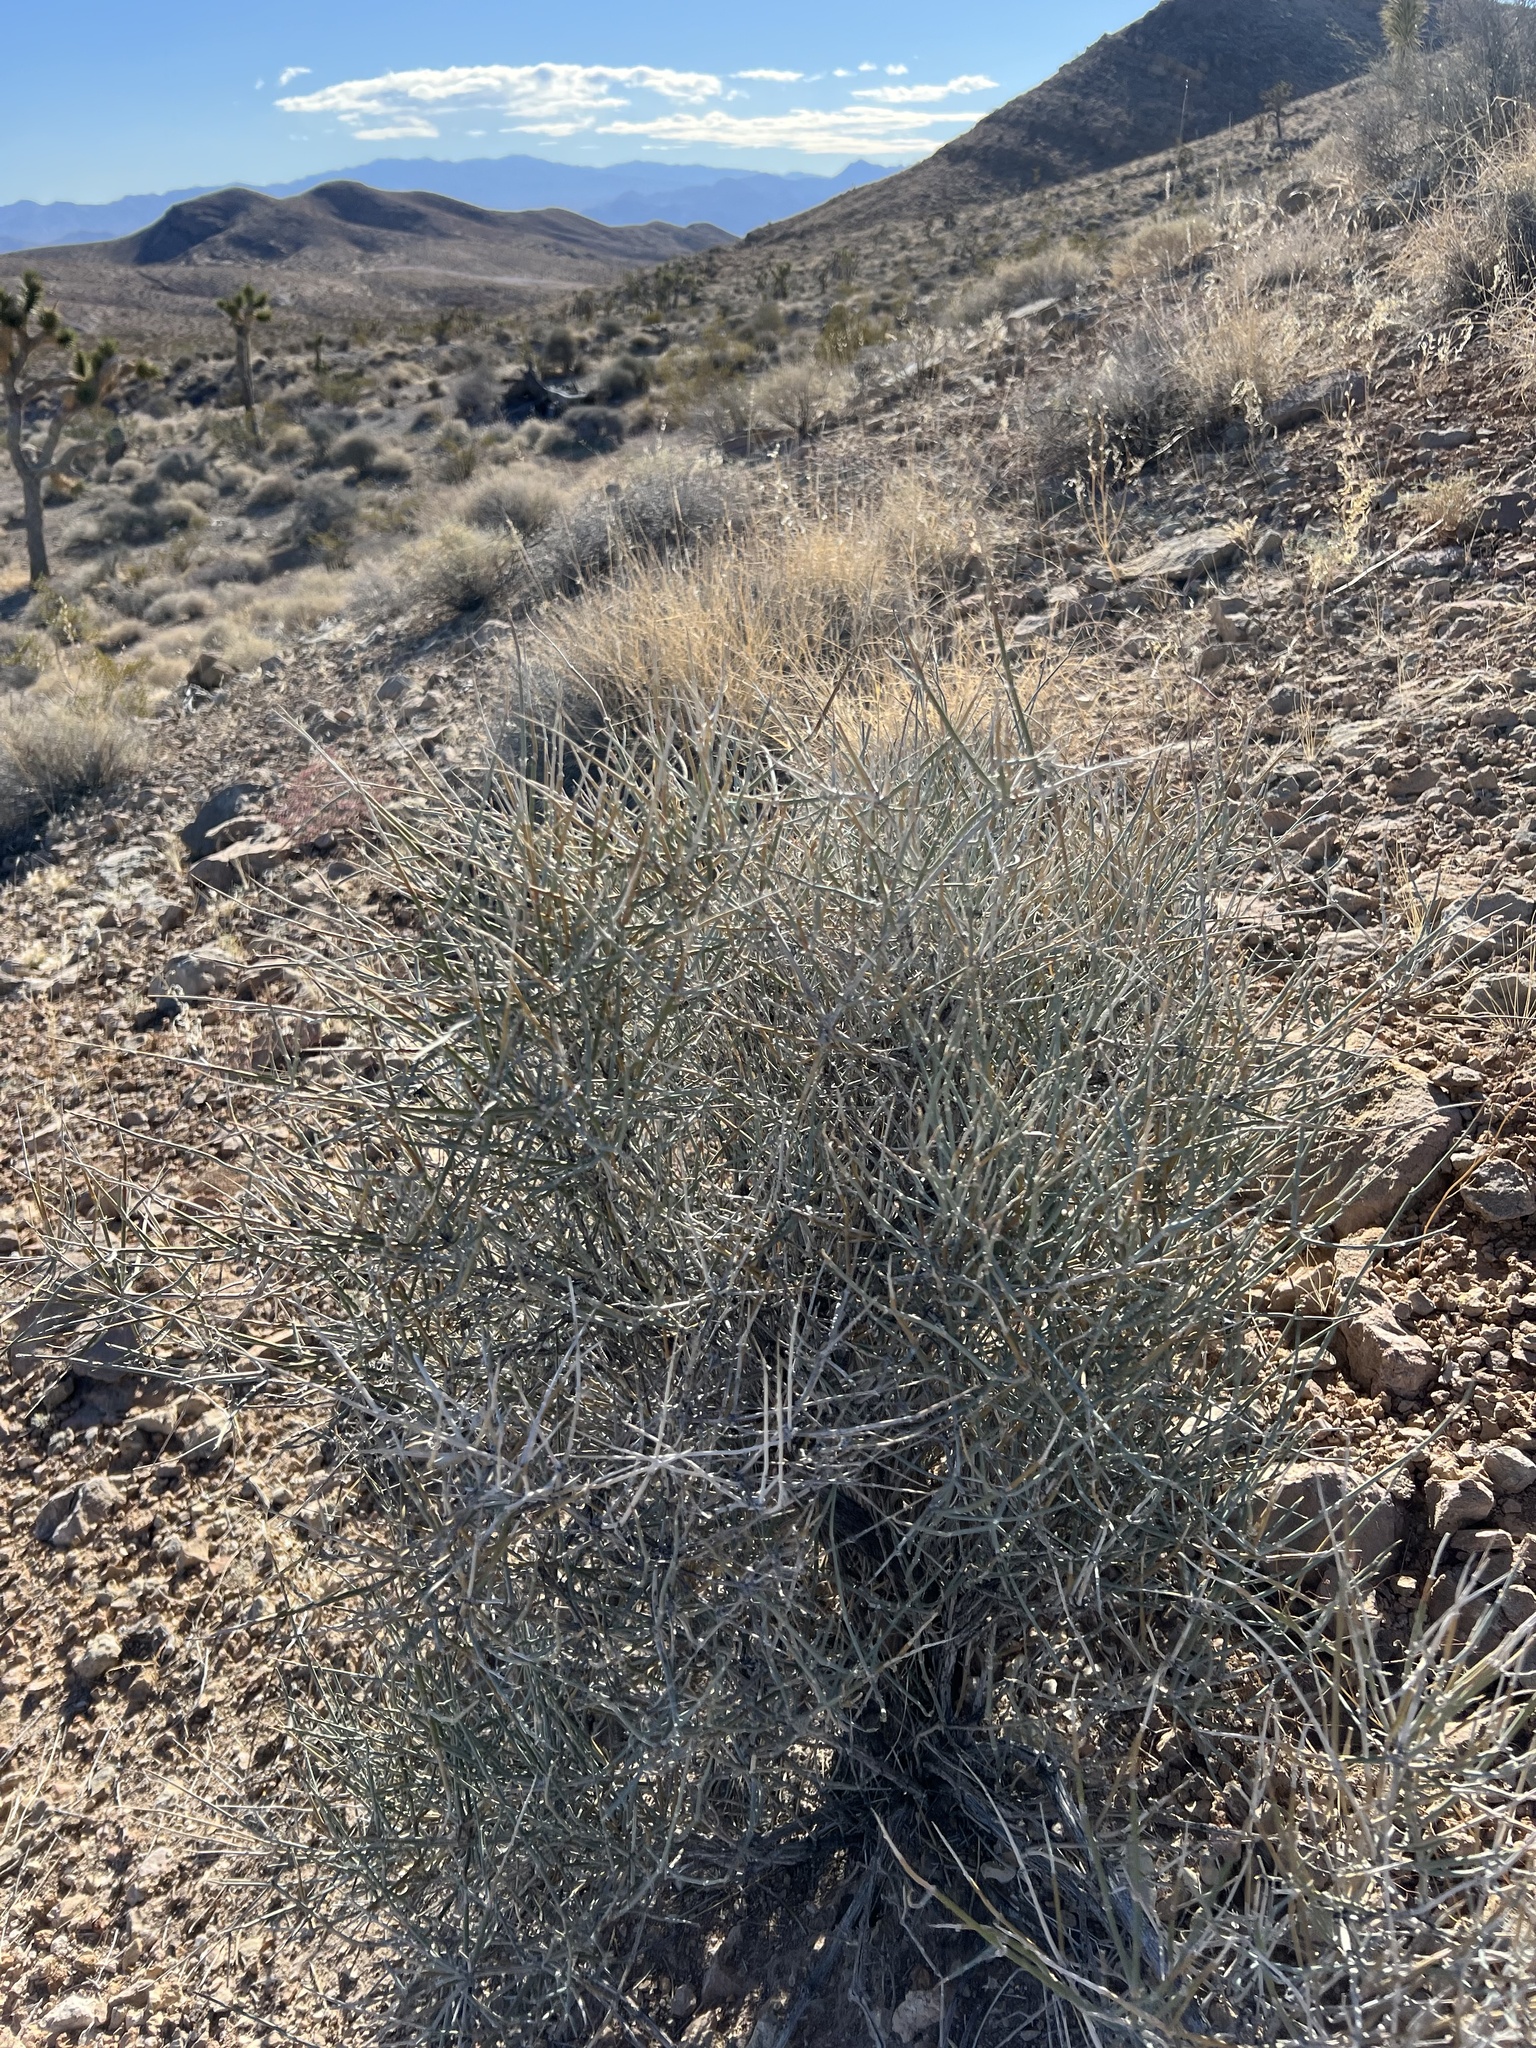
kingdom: Plantae
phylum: Tracheophyta
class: Gnetopsida
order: Ephedrales
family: Ephedraceae
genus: Ephedra
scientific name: Ephedra nevadensis
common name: Gray ephedra
